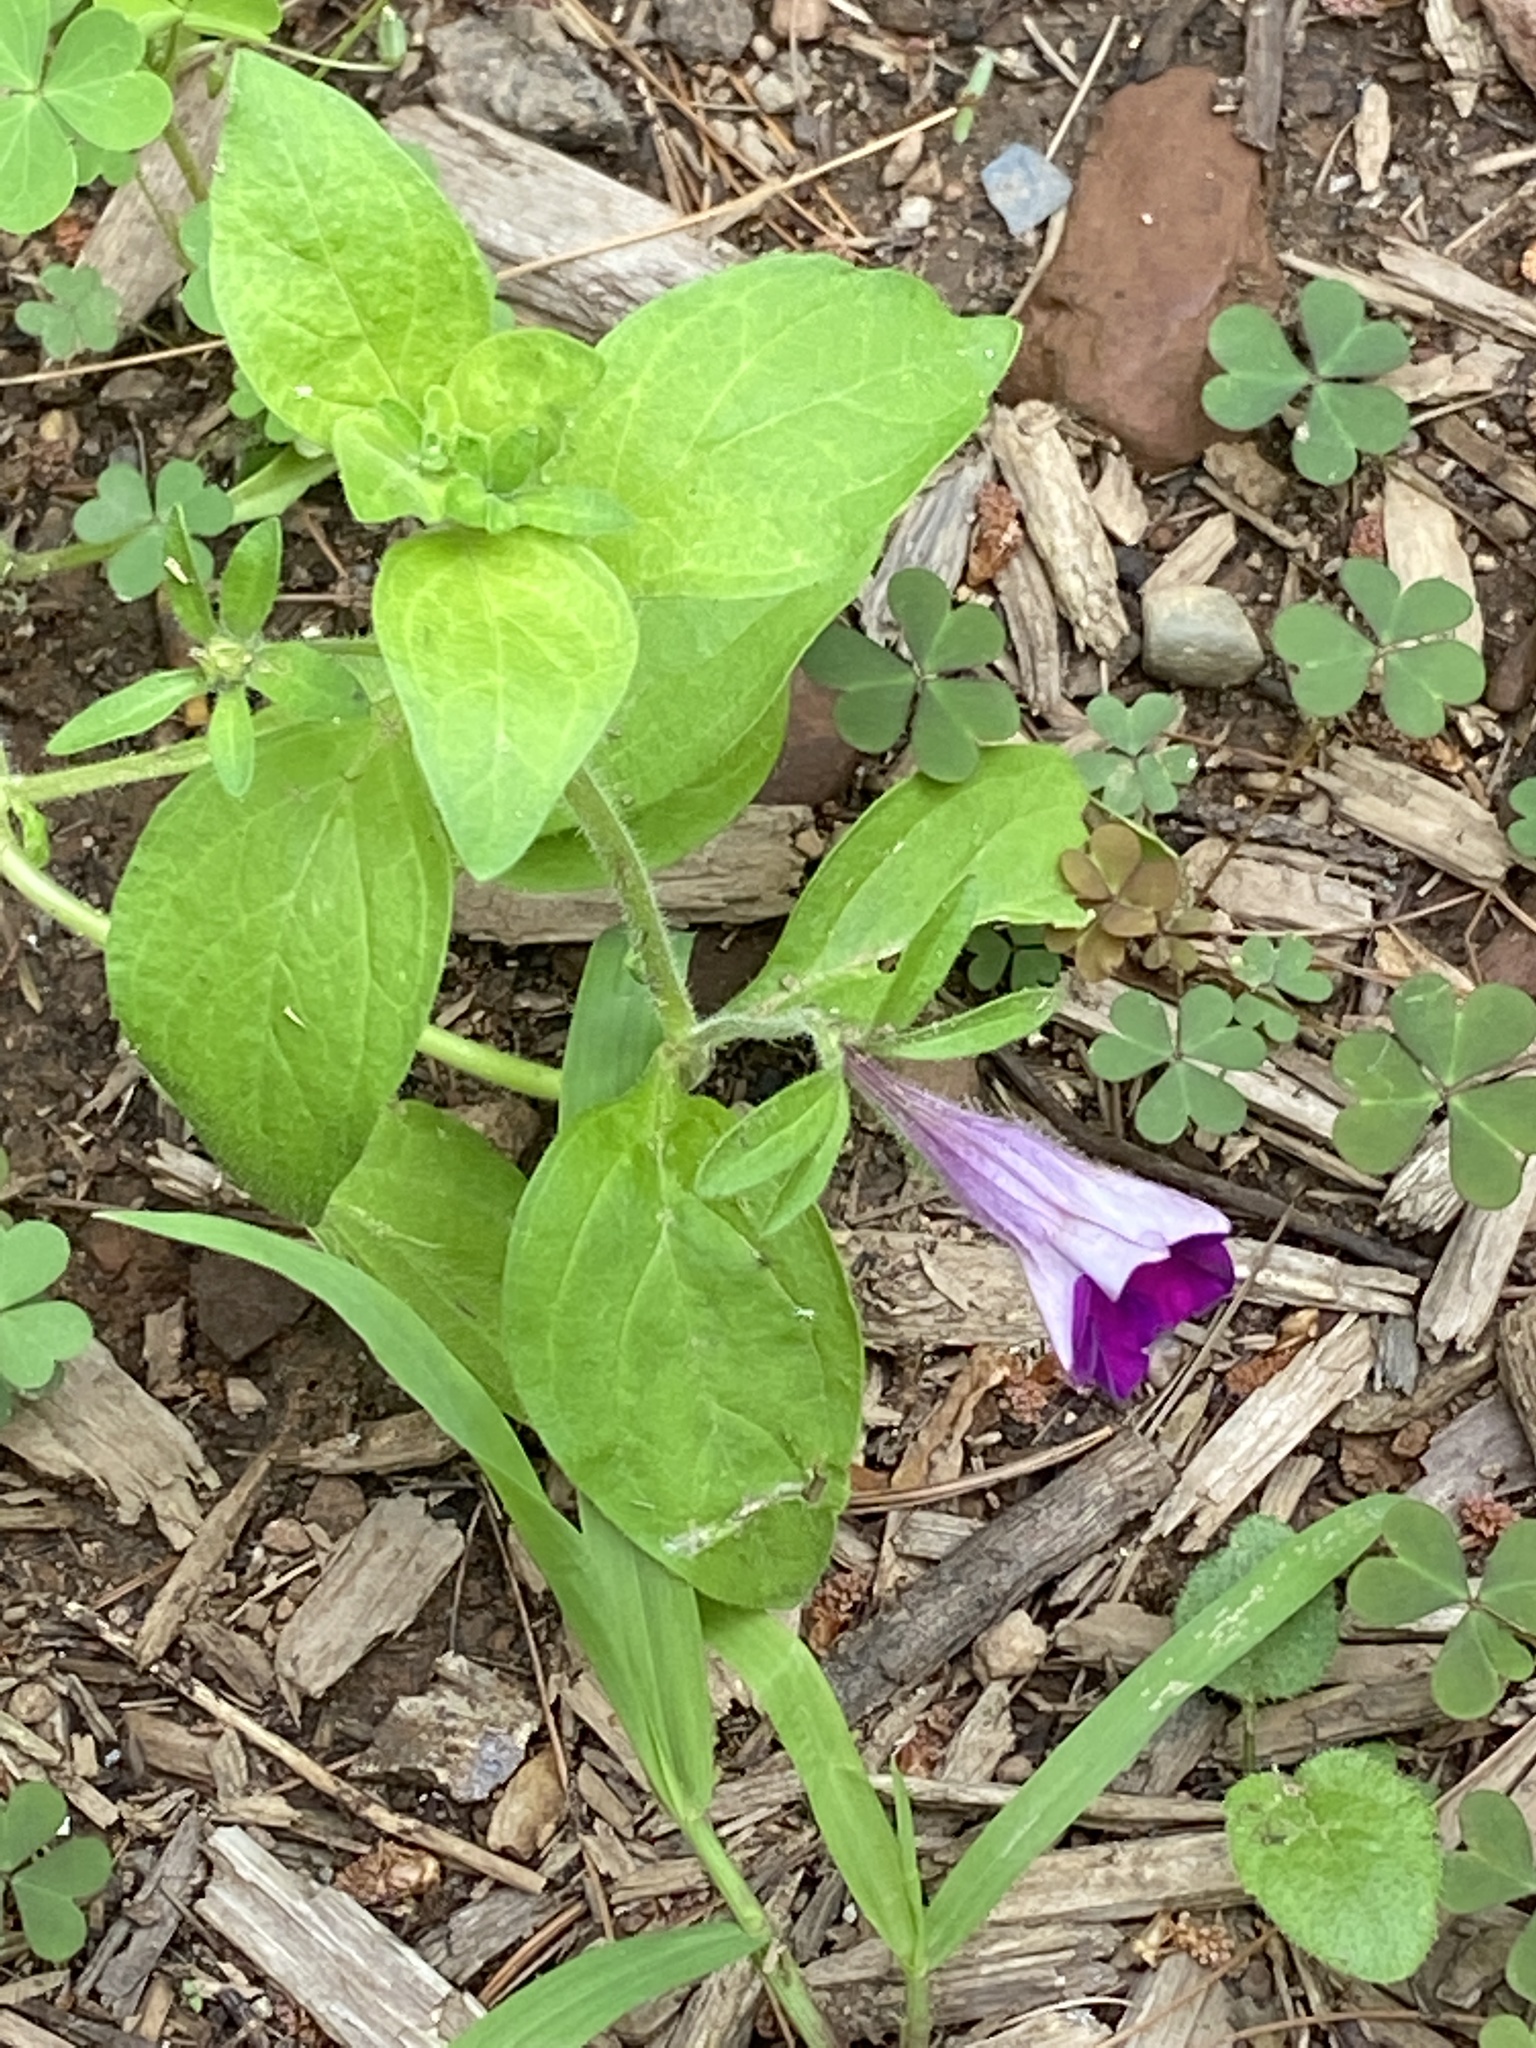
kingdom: Plantae
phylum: Tracheophyta
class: Magnoliopsida
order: Solanales
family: Solanaceae
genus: Petunia
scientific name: Petunia atkinsiana
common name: Petunia
